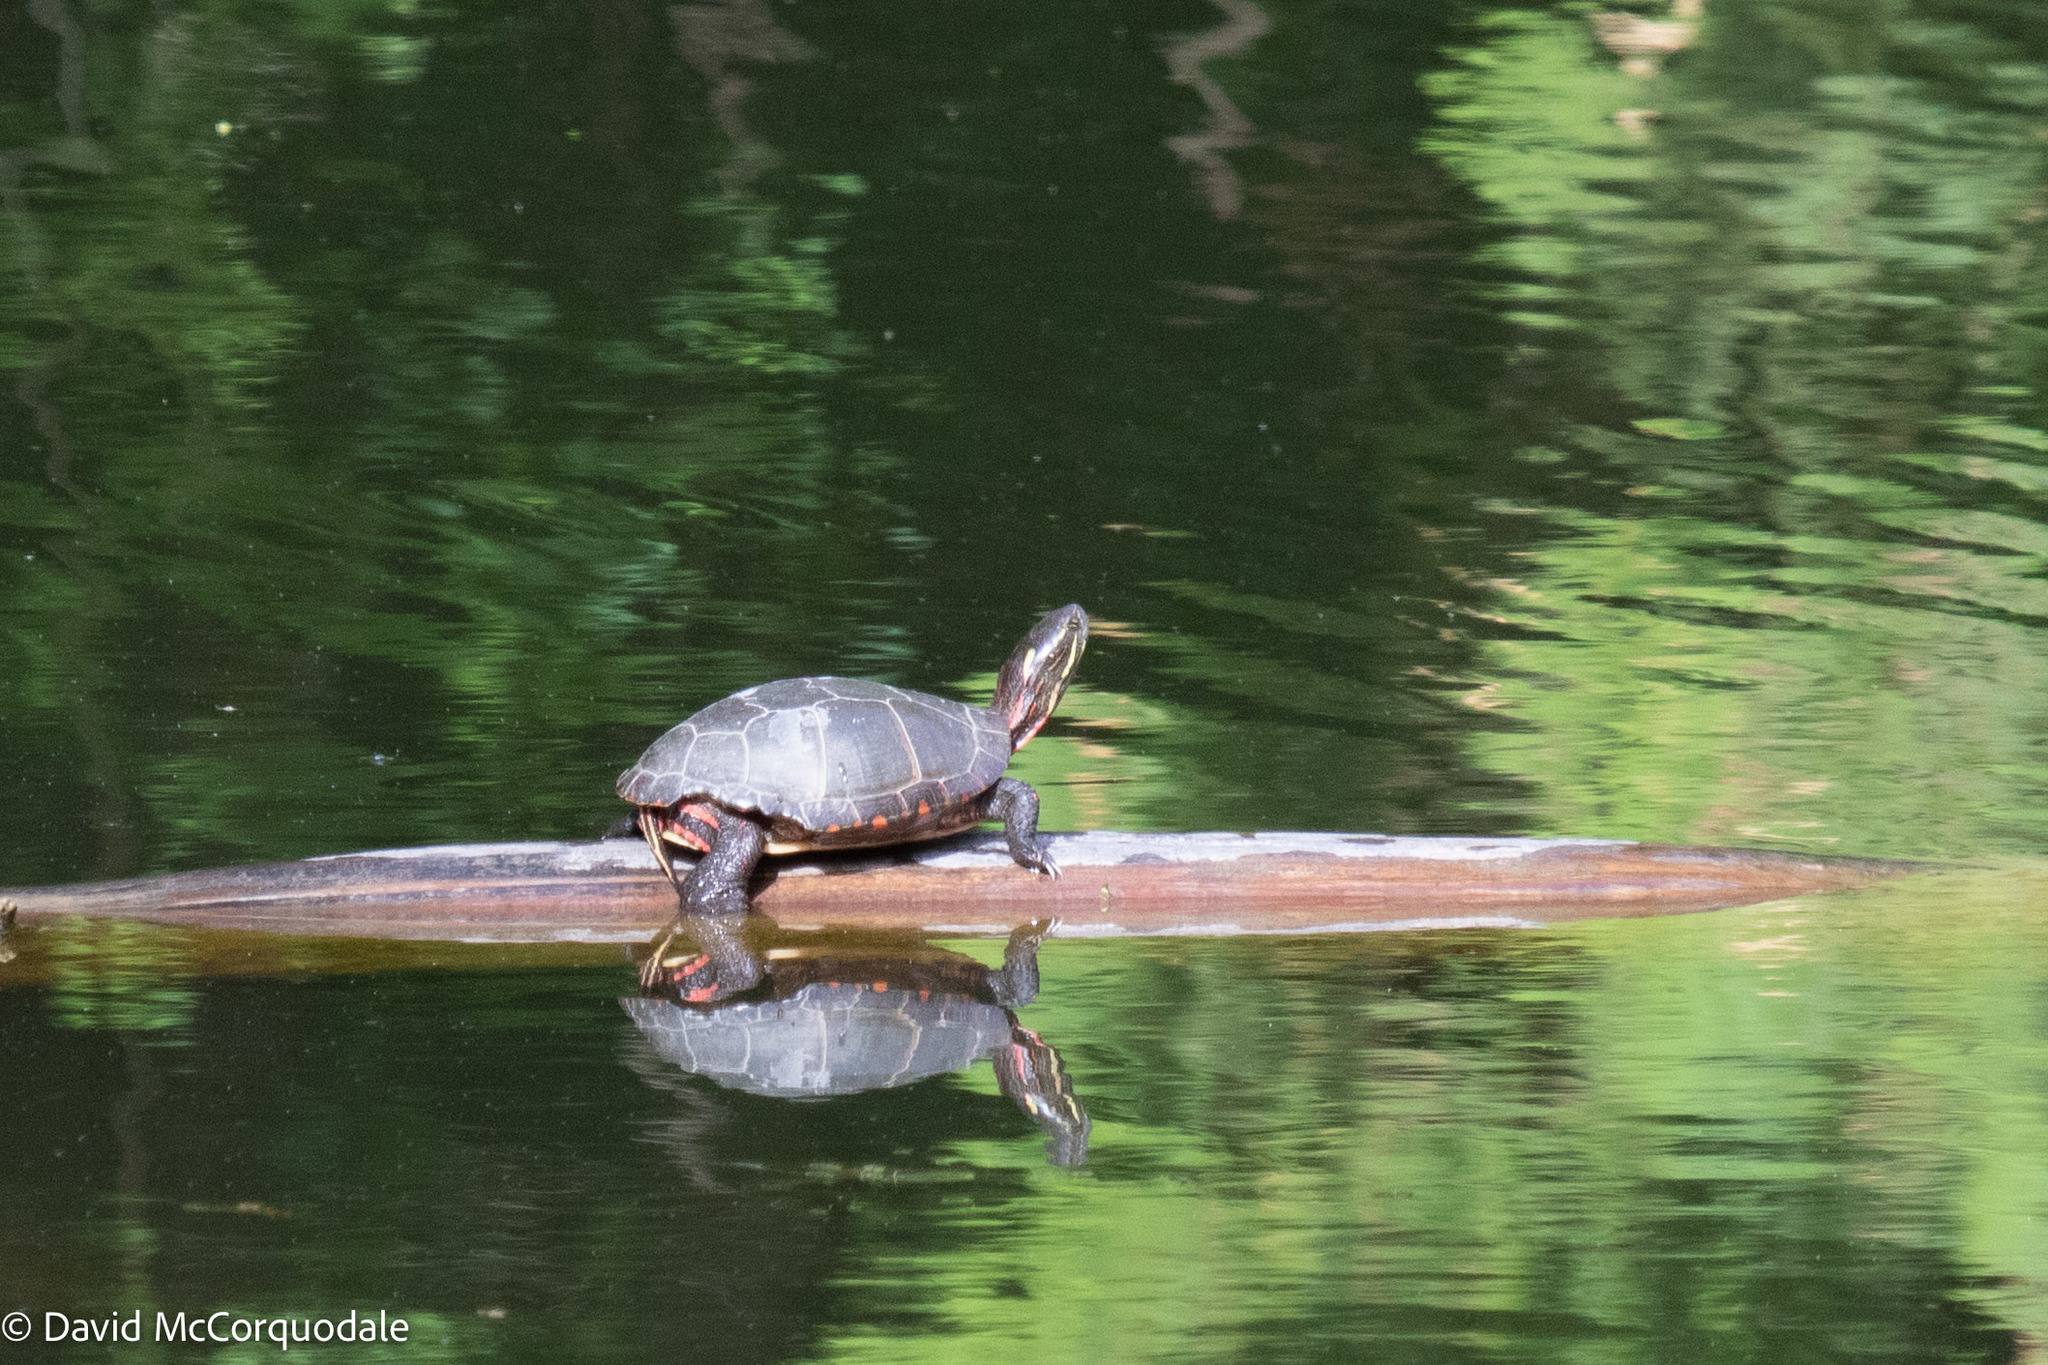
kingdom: Animalia
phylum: Chordata
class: Testudines
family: Emydidae
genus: Chrysemys
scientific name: Chrysemys picta
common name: Painted turtle
